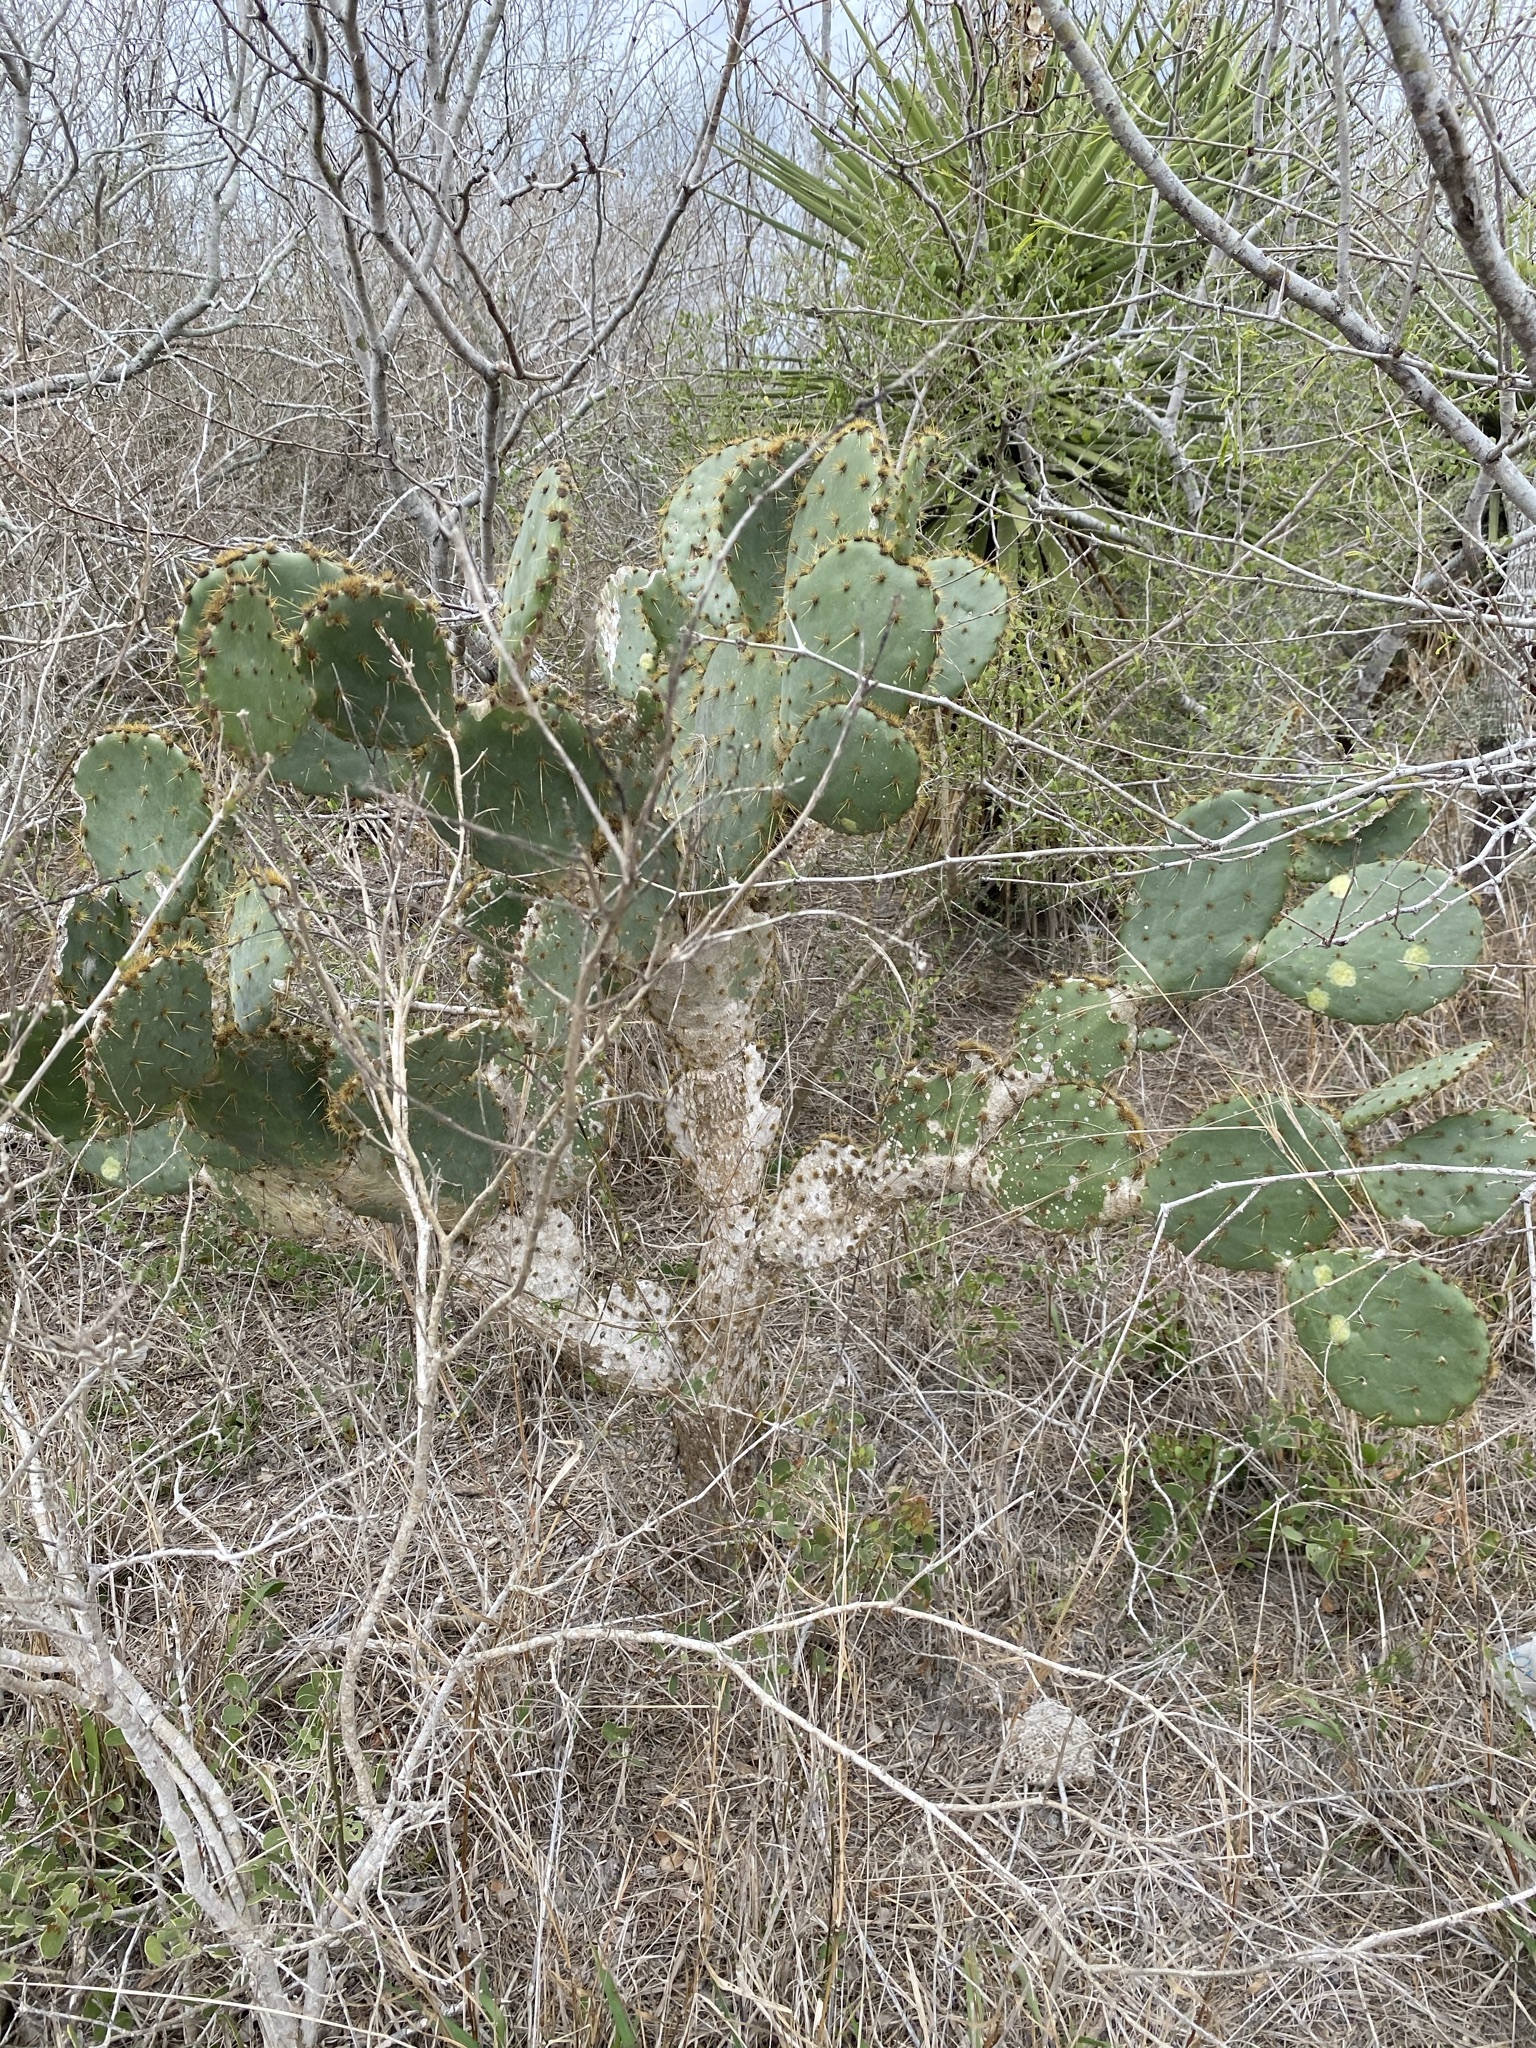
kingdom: Plantae
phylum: Tracheophyta
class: Magnoliopsida
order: Caryophyllales
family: Cactaceae
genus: Opuntia
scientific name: Opuntia alta
